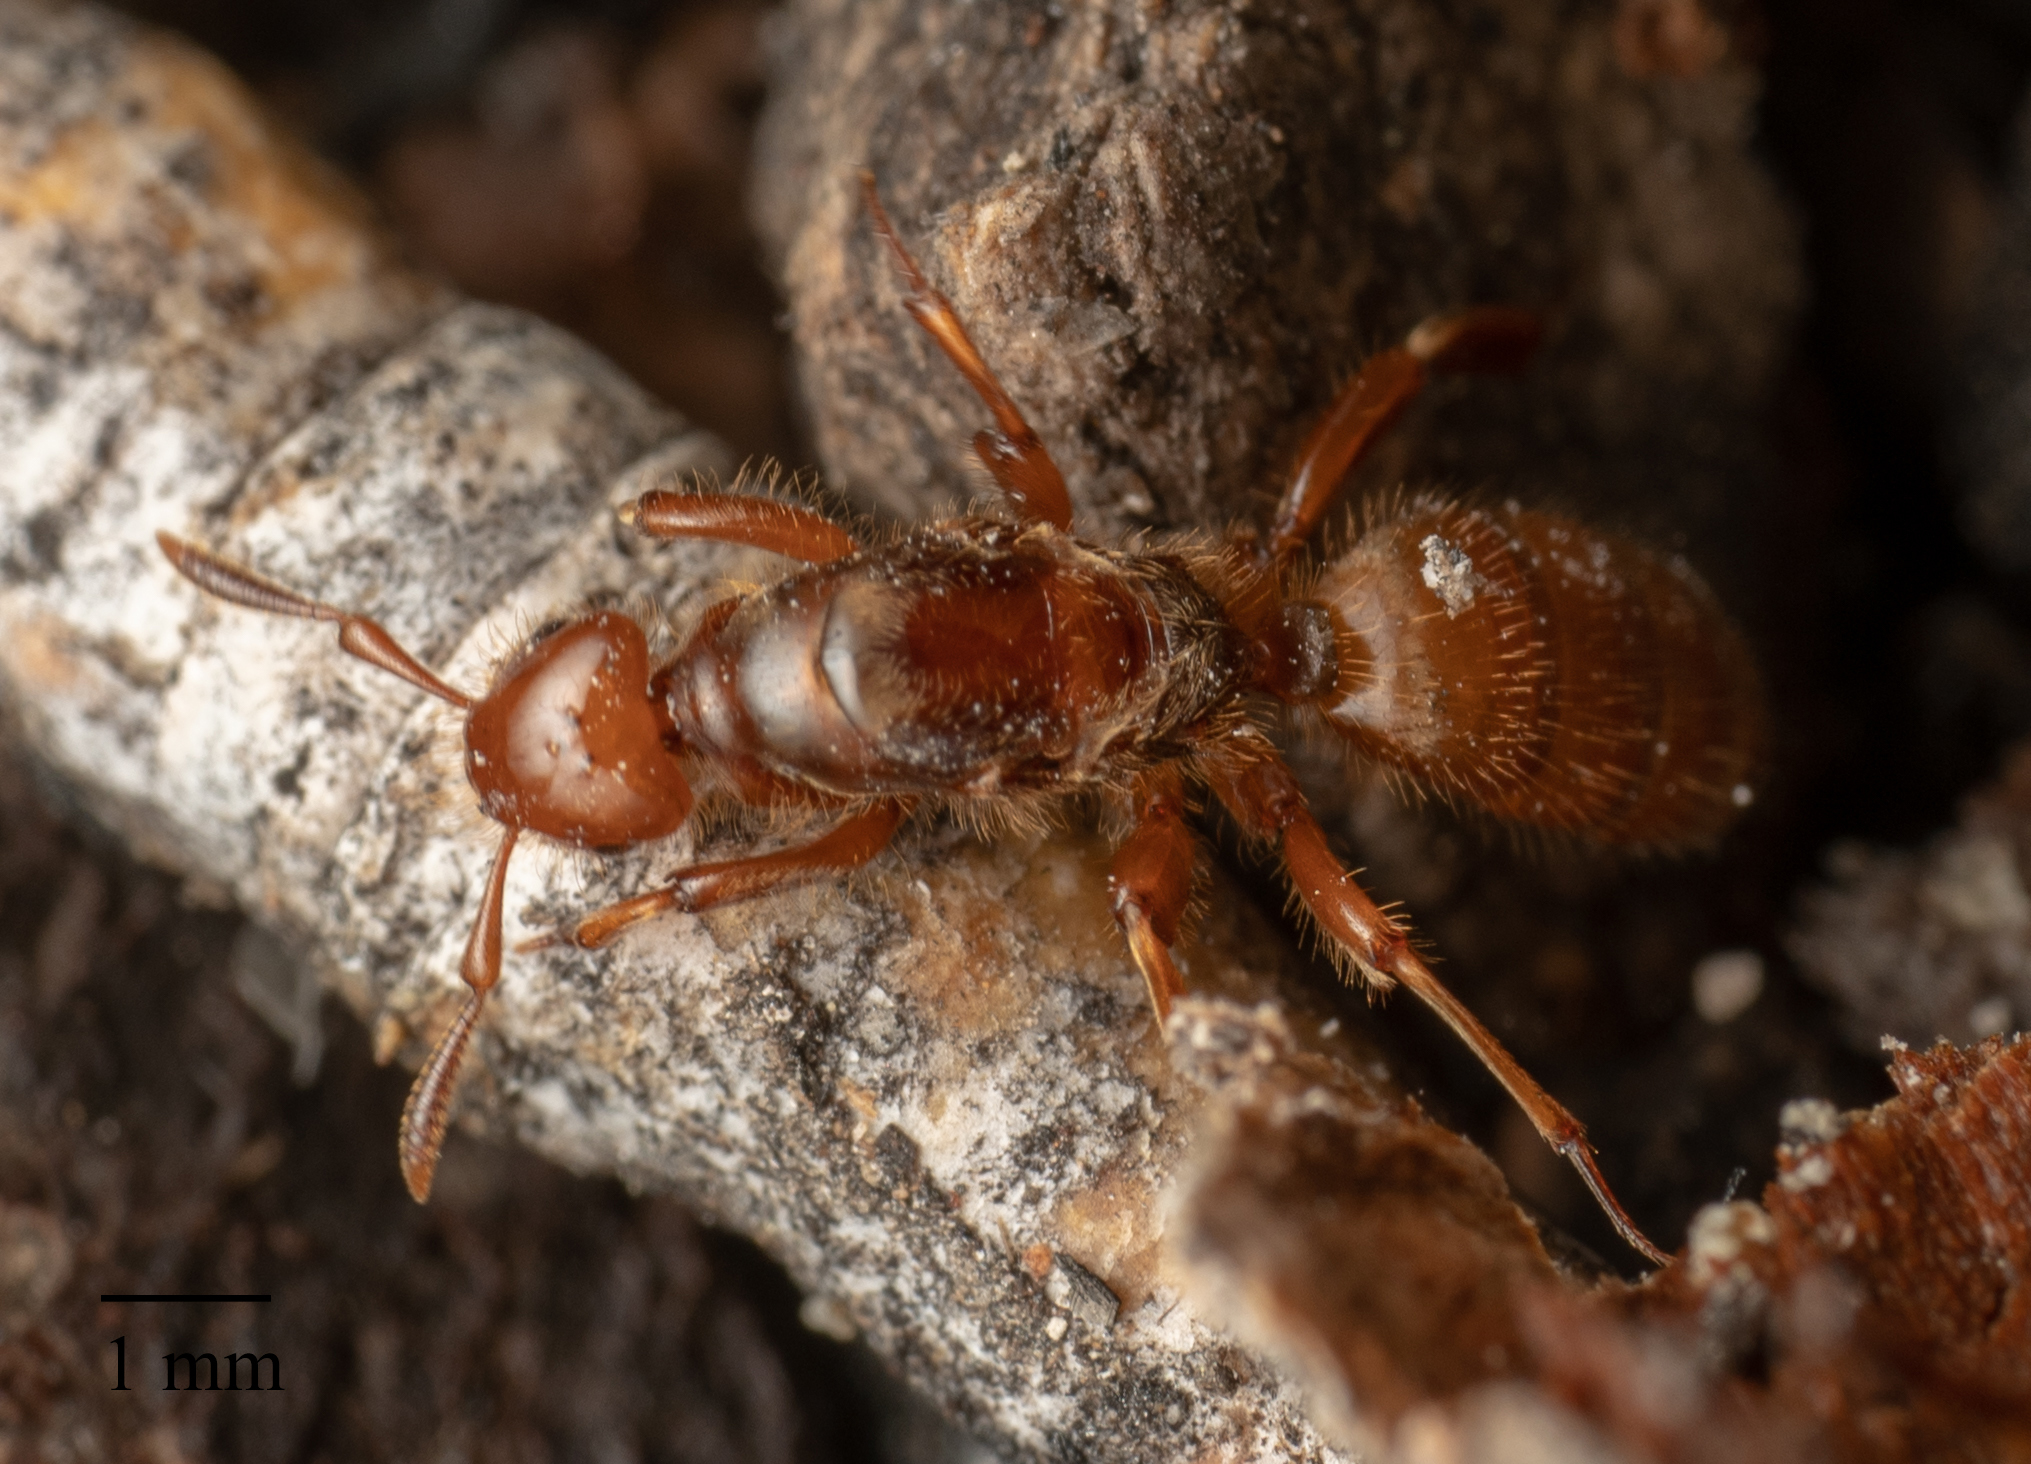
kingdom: Animalia
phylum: Arthropoda
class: Insecta
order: Hymenoptera
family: Formicidae
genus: Acanthomyops
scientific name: Acanthomyops latipes
